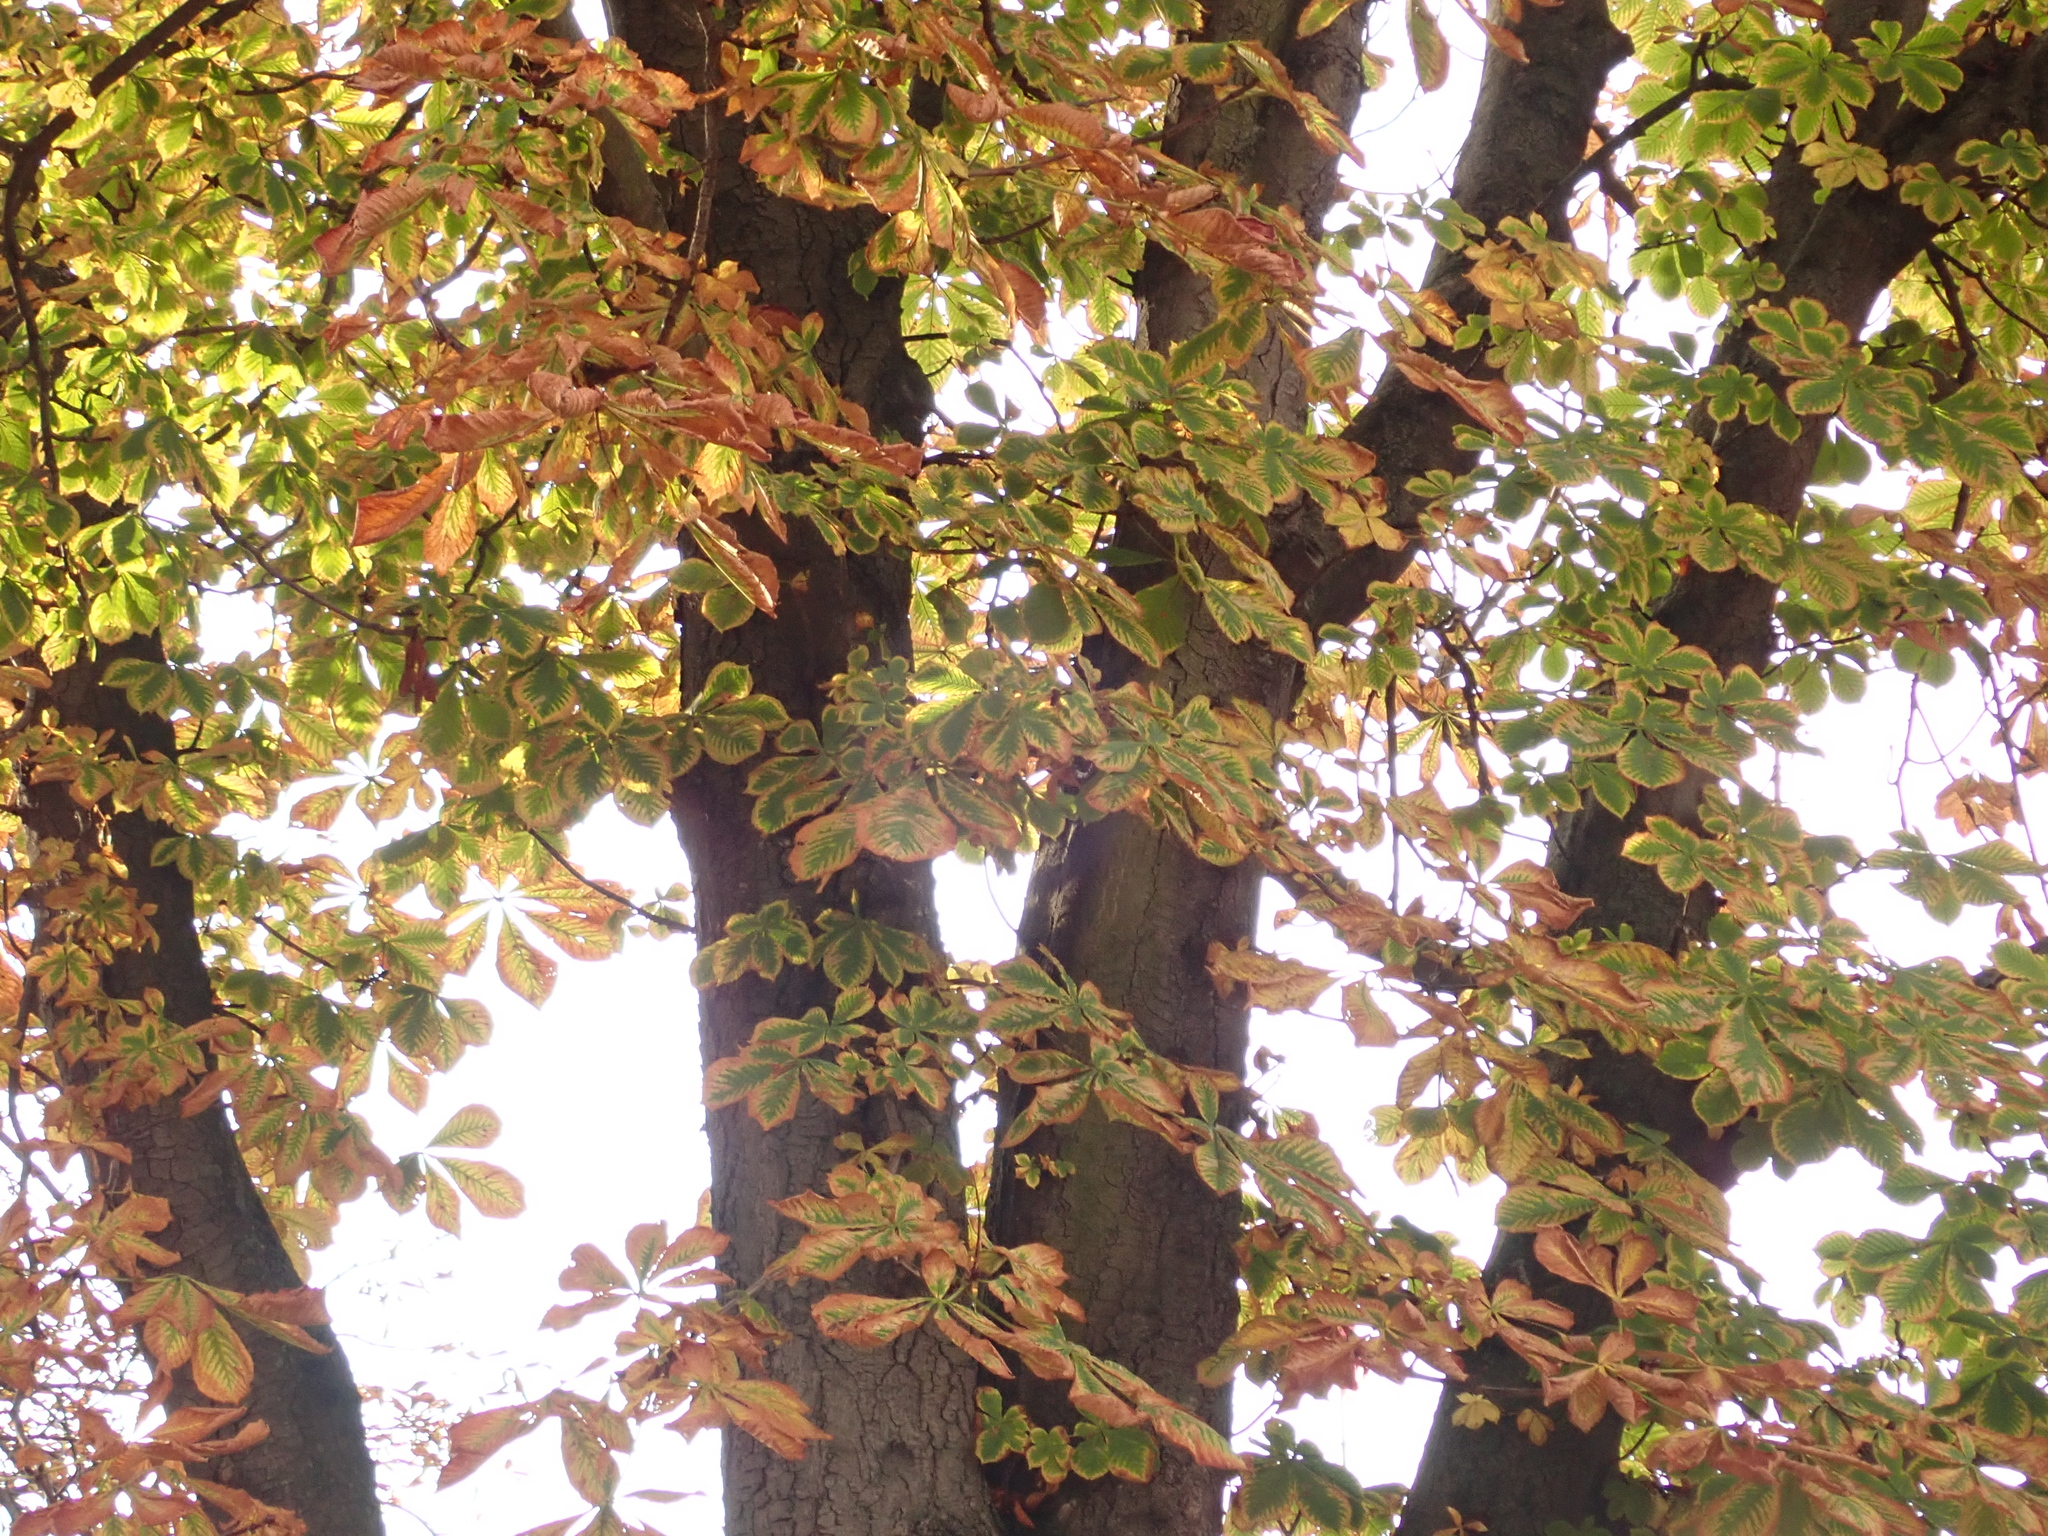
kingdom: Plantae
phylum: Tracheophyta
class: Magnoliopsida
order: Sapindales
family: Sapindaceae
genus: Aesculus
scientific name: Aesculus hippocastanum
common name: Horse-chestnut
